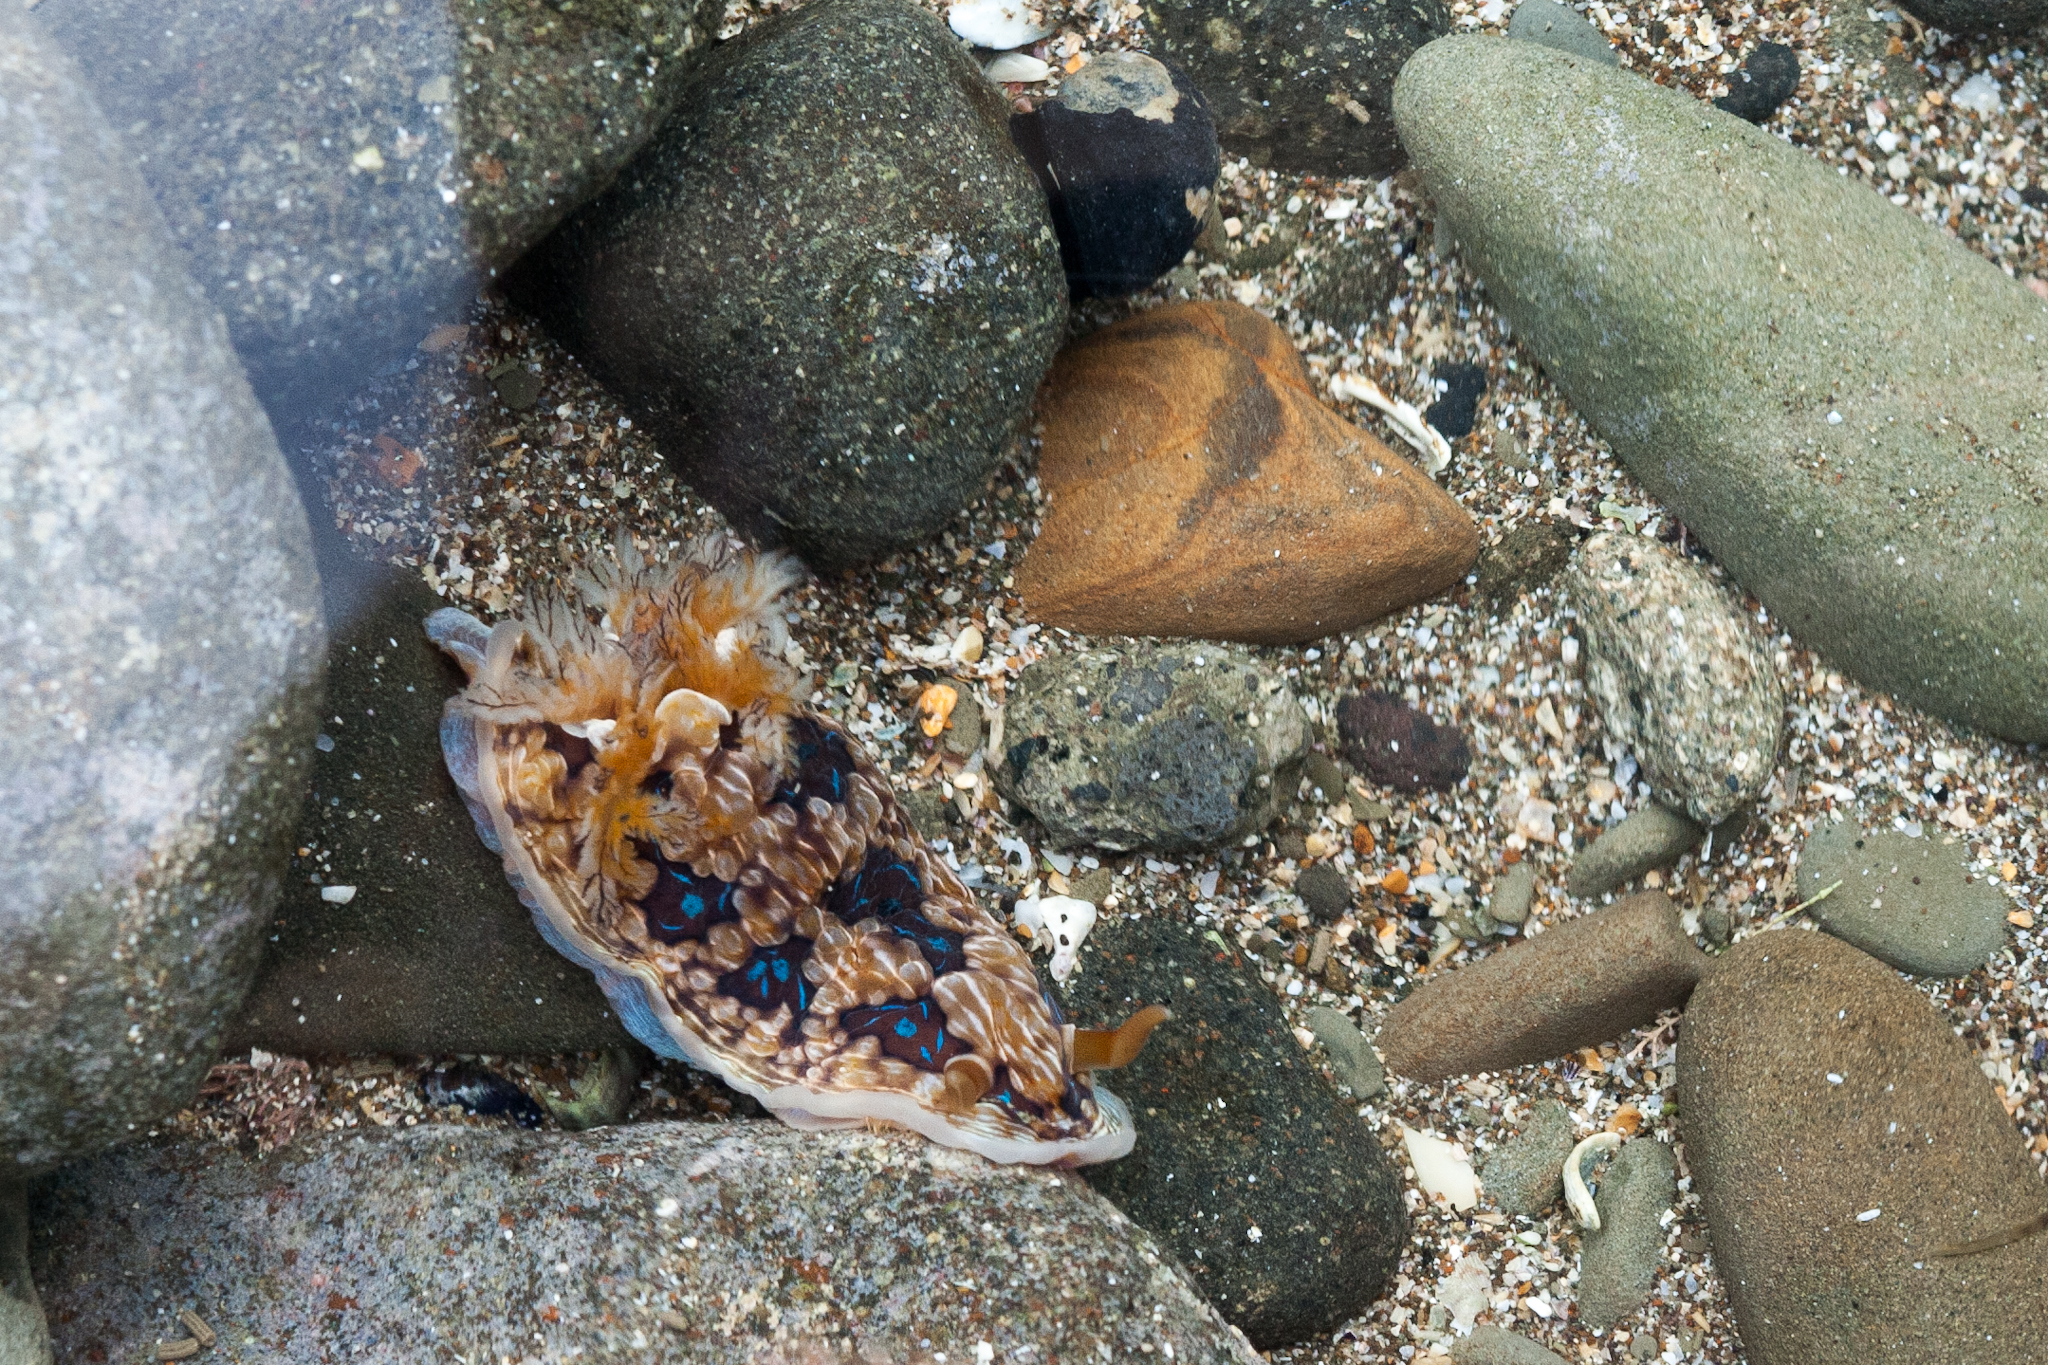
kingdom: Animalia
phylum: Mollusca
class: Gastropoda
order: Nudibranchia
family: Dendrodorididae
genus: Dendrodoris
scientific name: Dendrodoris krusensternii
